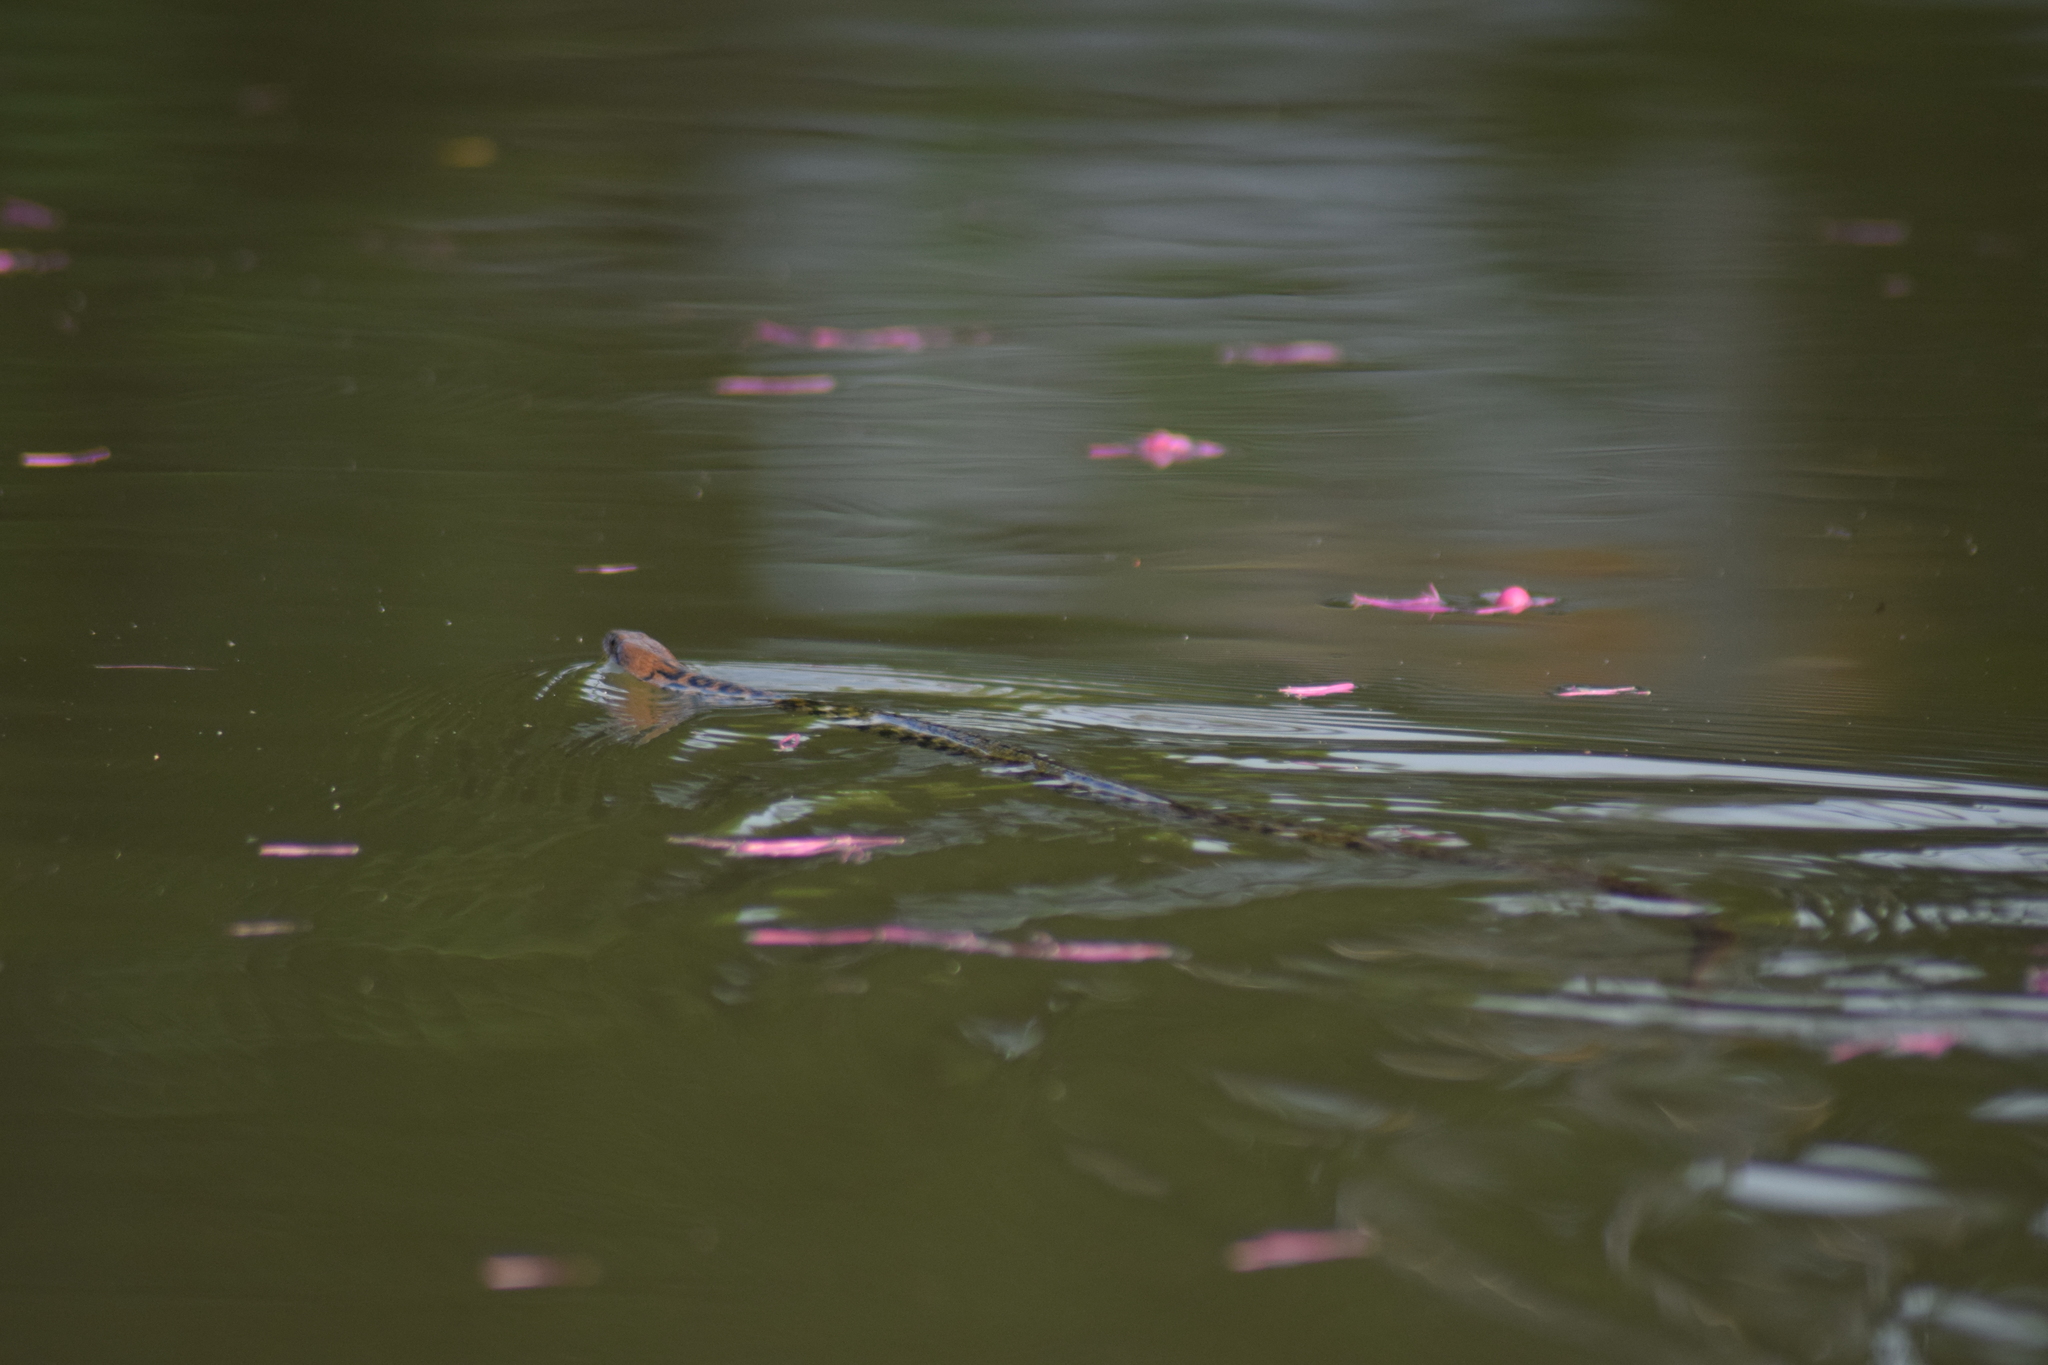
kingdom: Animalia
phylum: Chordata
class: Squamata
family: Colubridae
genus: Fowlea
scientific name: Fowlea piscator
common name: Asiatic water snake
